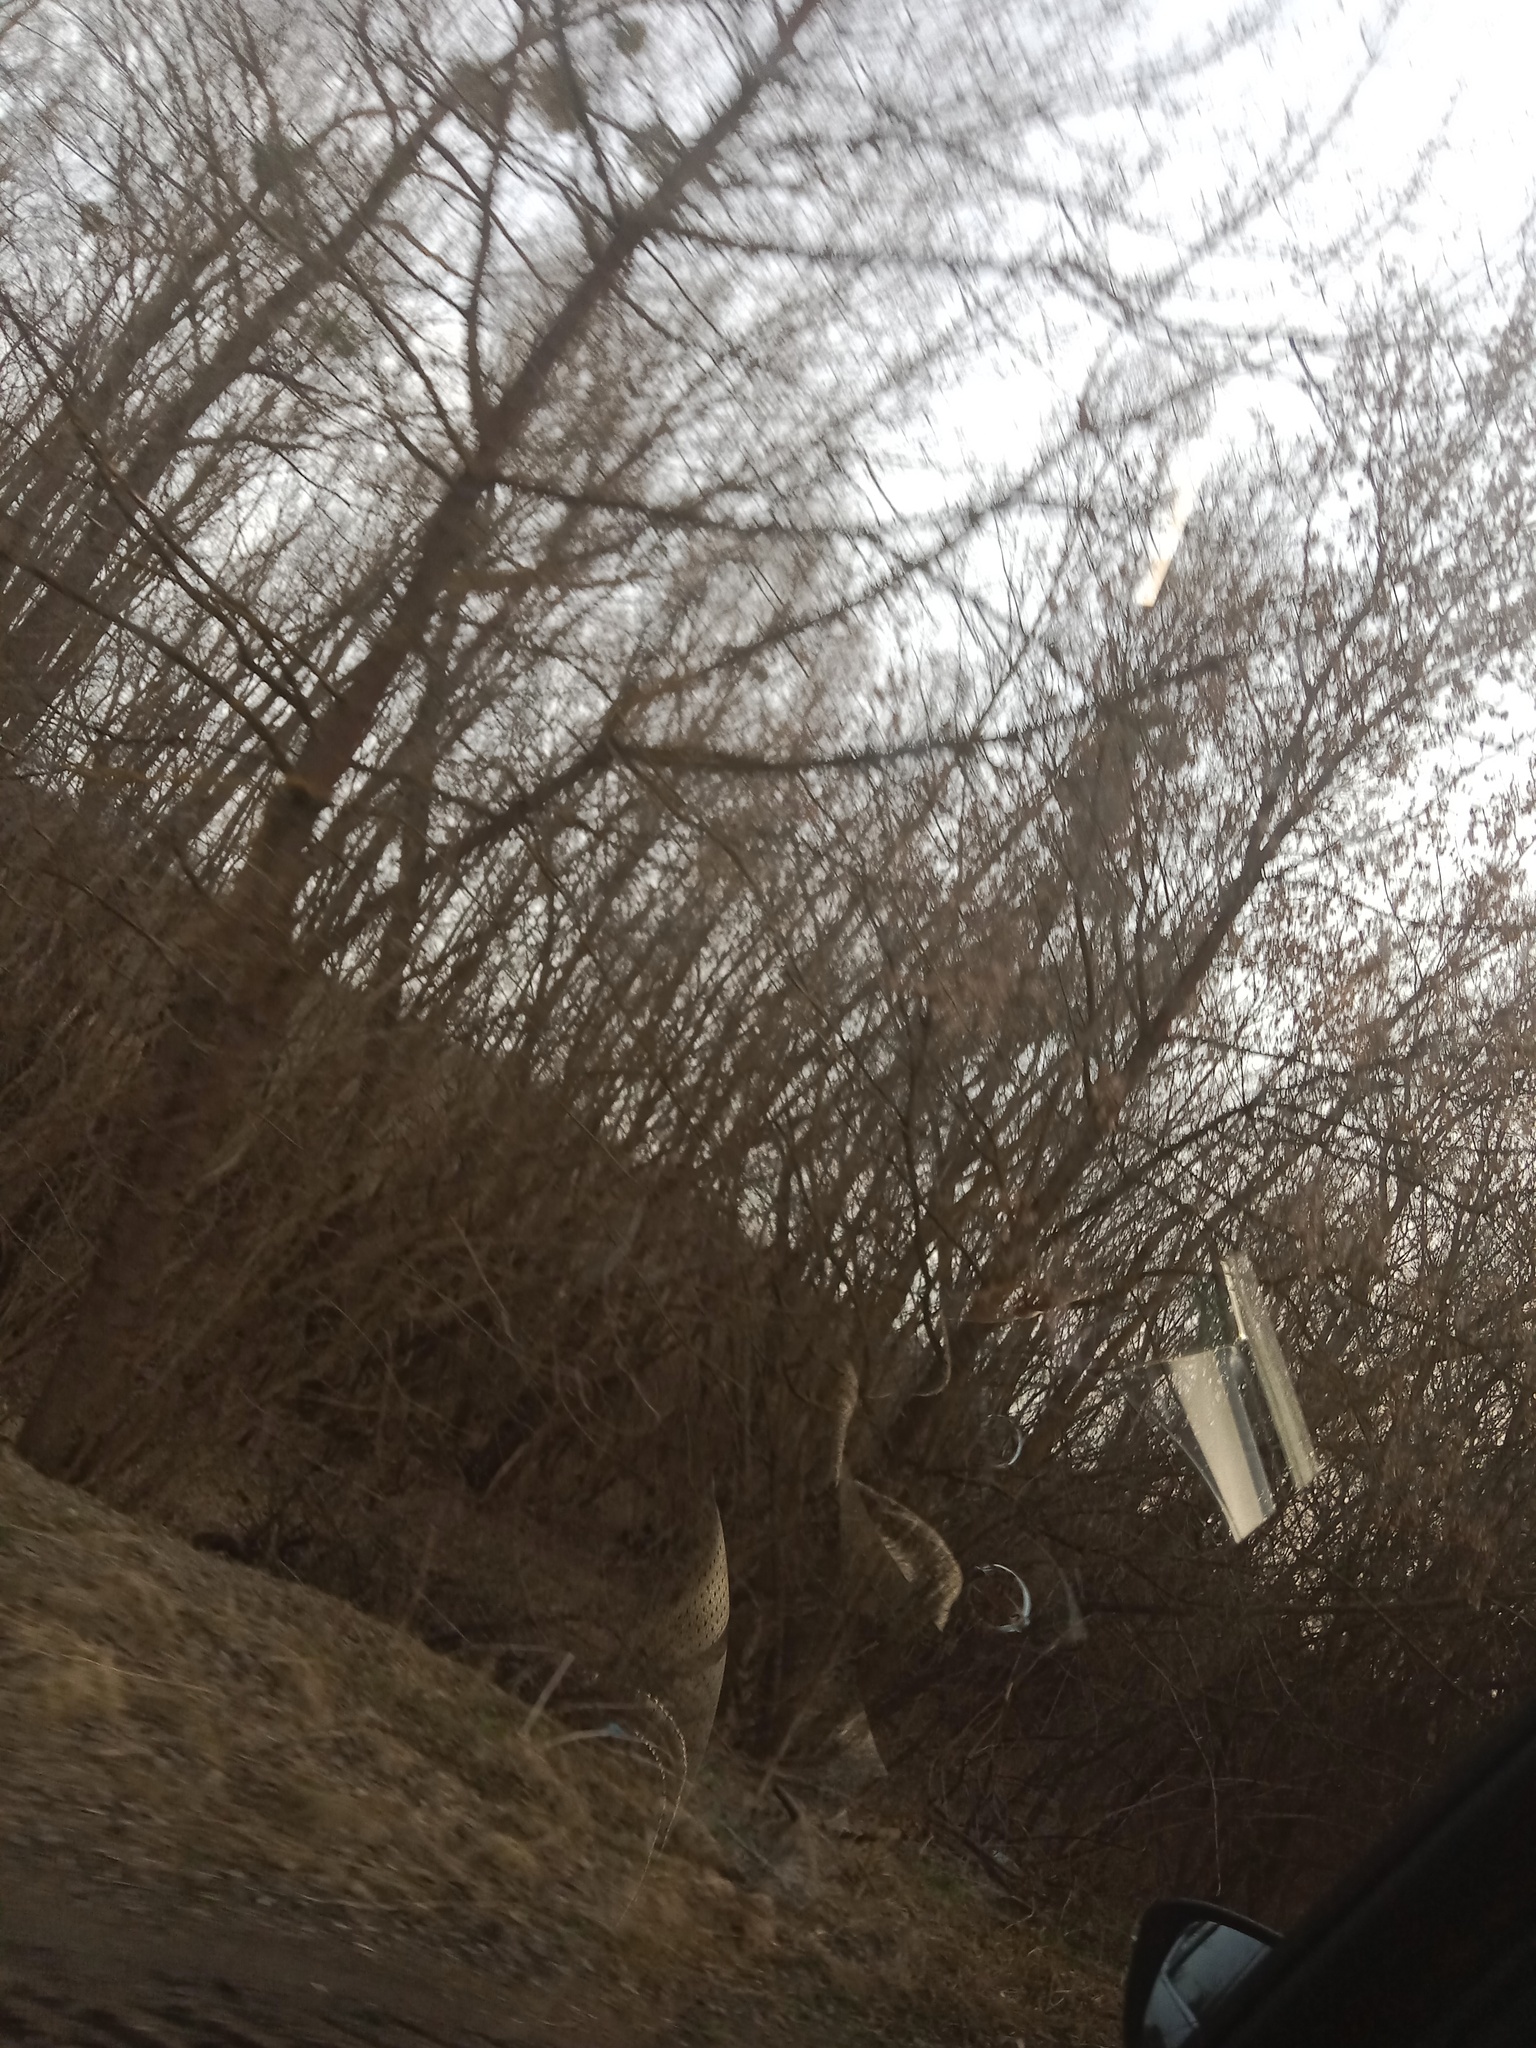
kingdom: Plantae
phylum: Tracheophyta
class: Magnoliopsida
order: Santalales
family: Viscaceae
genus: Viscum
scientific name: Viscum album
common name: Mistletoe
